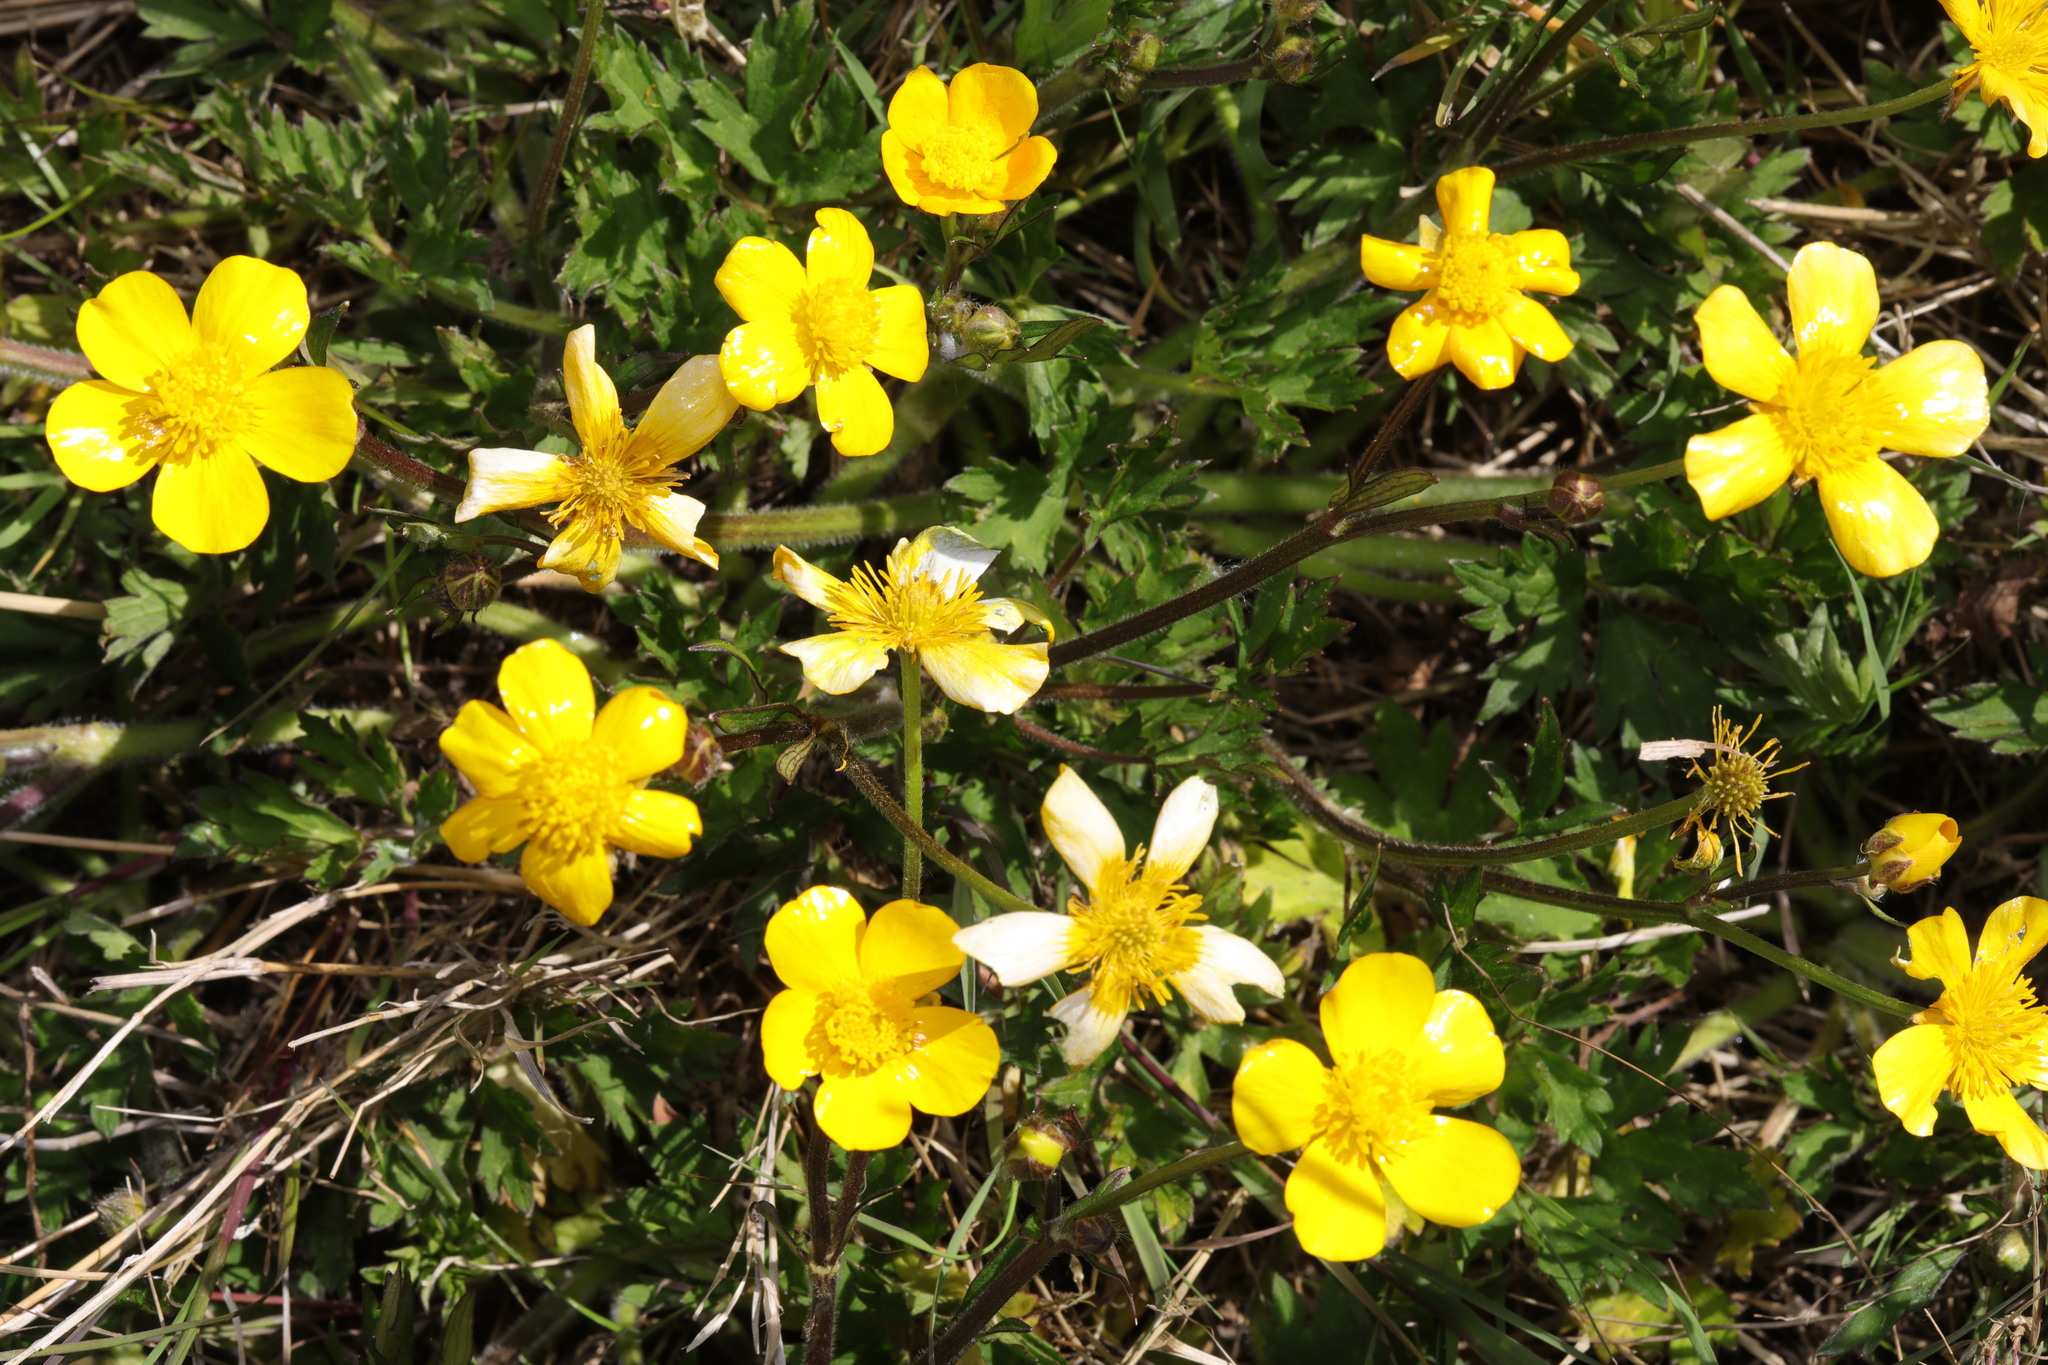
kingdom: Plantae
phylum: Tracheophyta
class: Magnoliopsida
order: Ranunculales
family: Ranunculaceae
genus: Ranunculus
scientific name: Ranunculus repens
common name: Creeping buttercup
